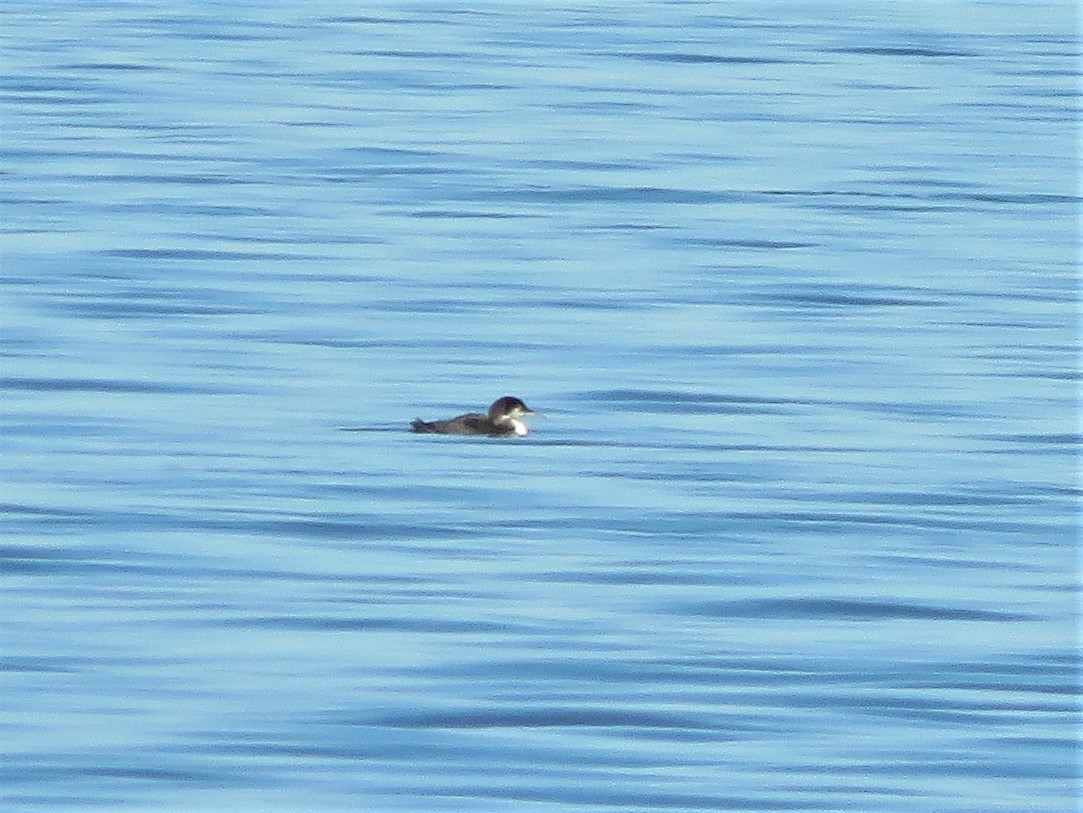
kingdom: Animalia
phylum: Chordata
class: Aves
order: Gaviiformes
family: Gaviidae
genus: Gavia
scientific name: Gavia immer
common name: Common loon
